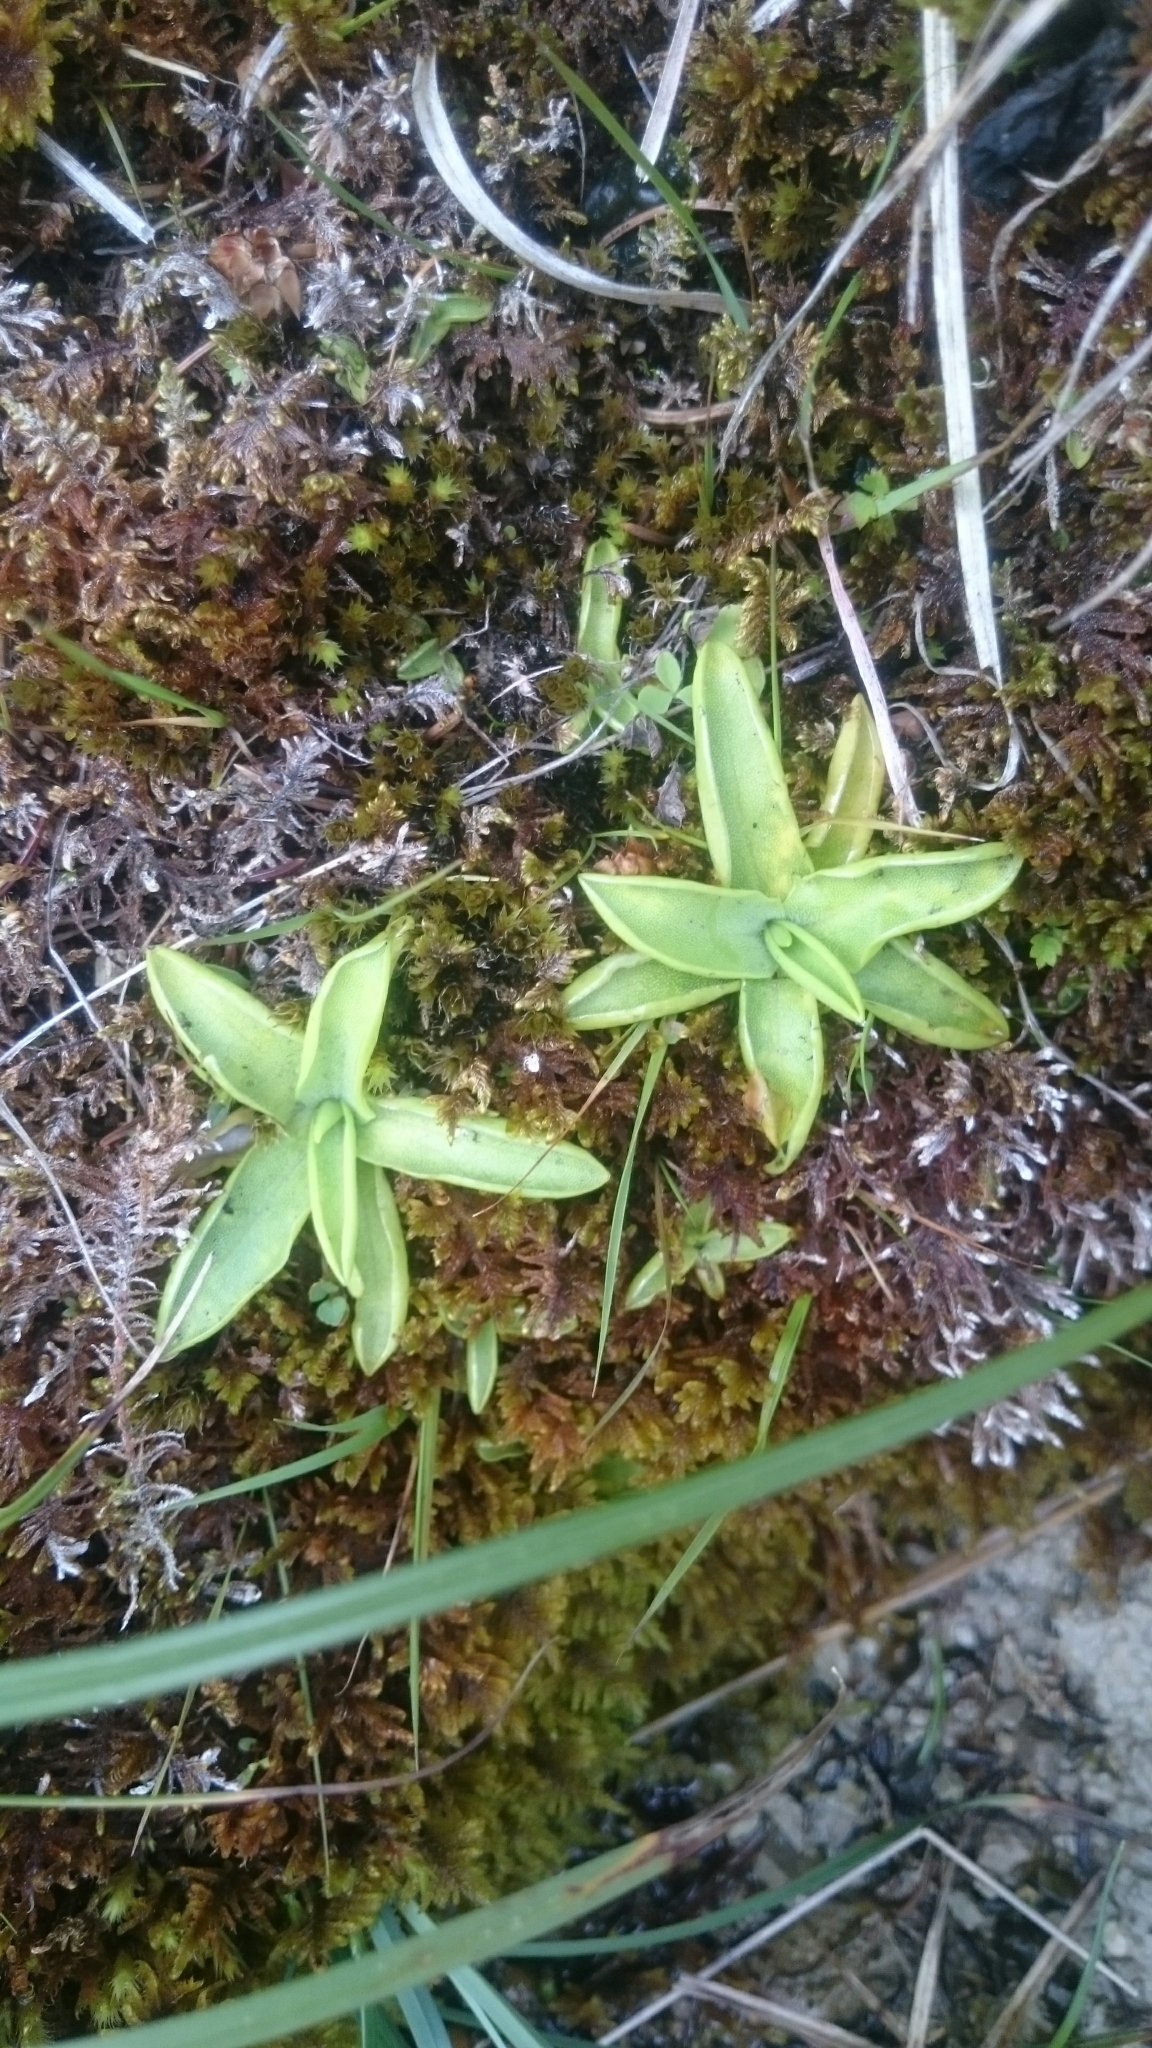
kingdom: Plantae
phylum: Tracheophyta
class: Magnoliopsida
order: Lamiales
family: Lentibulariaceae
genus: Pinguicula
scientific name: Pinguicula vulgaris
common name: Common butterwort
